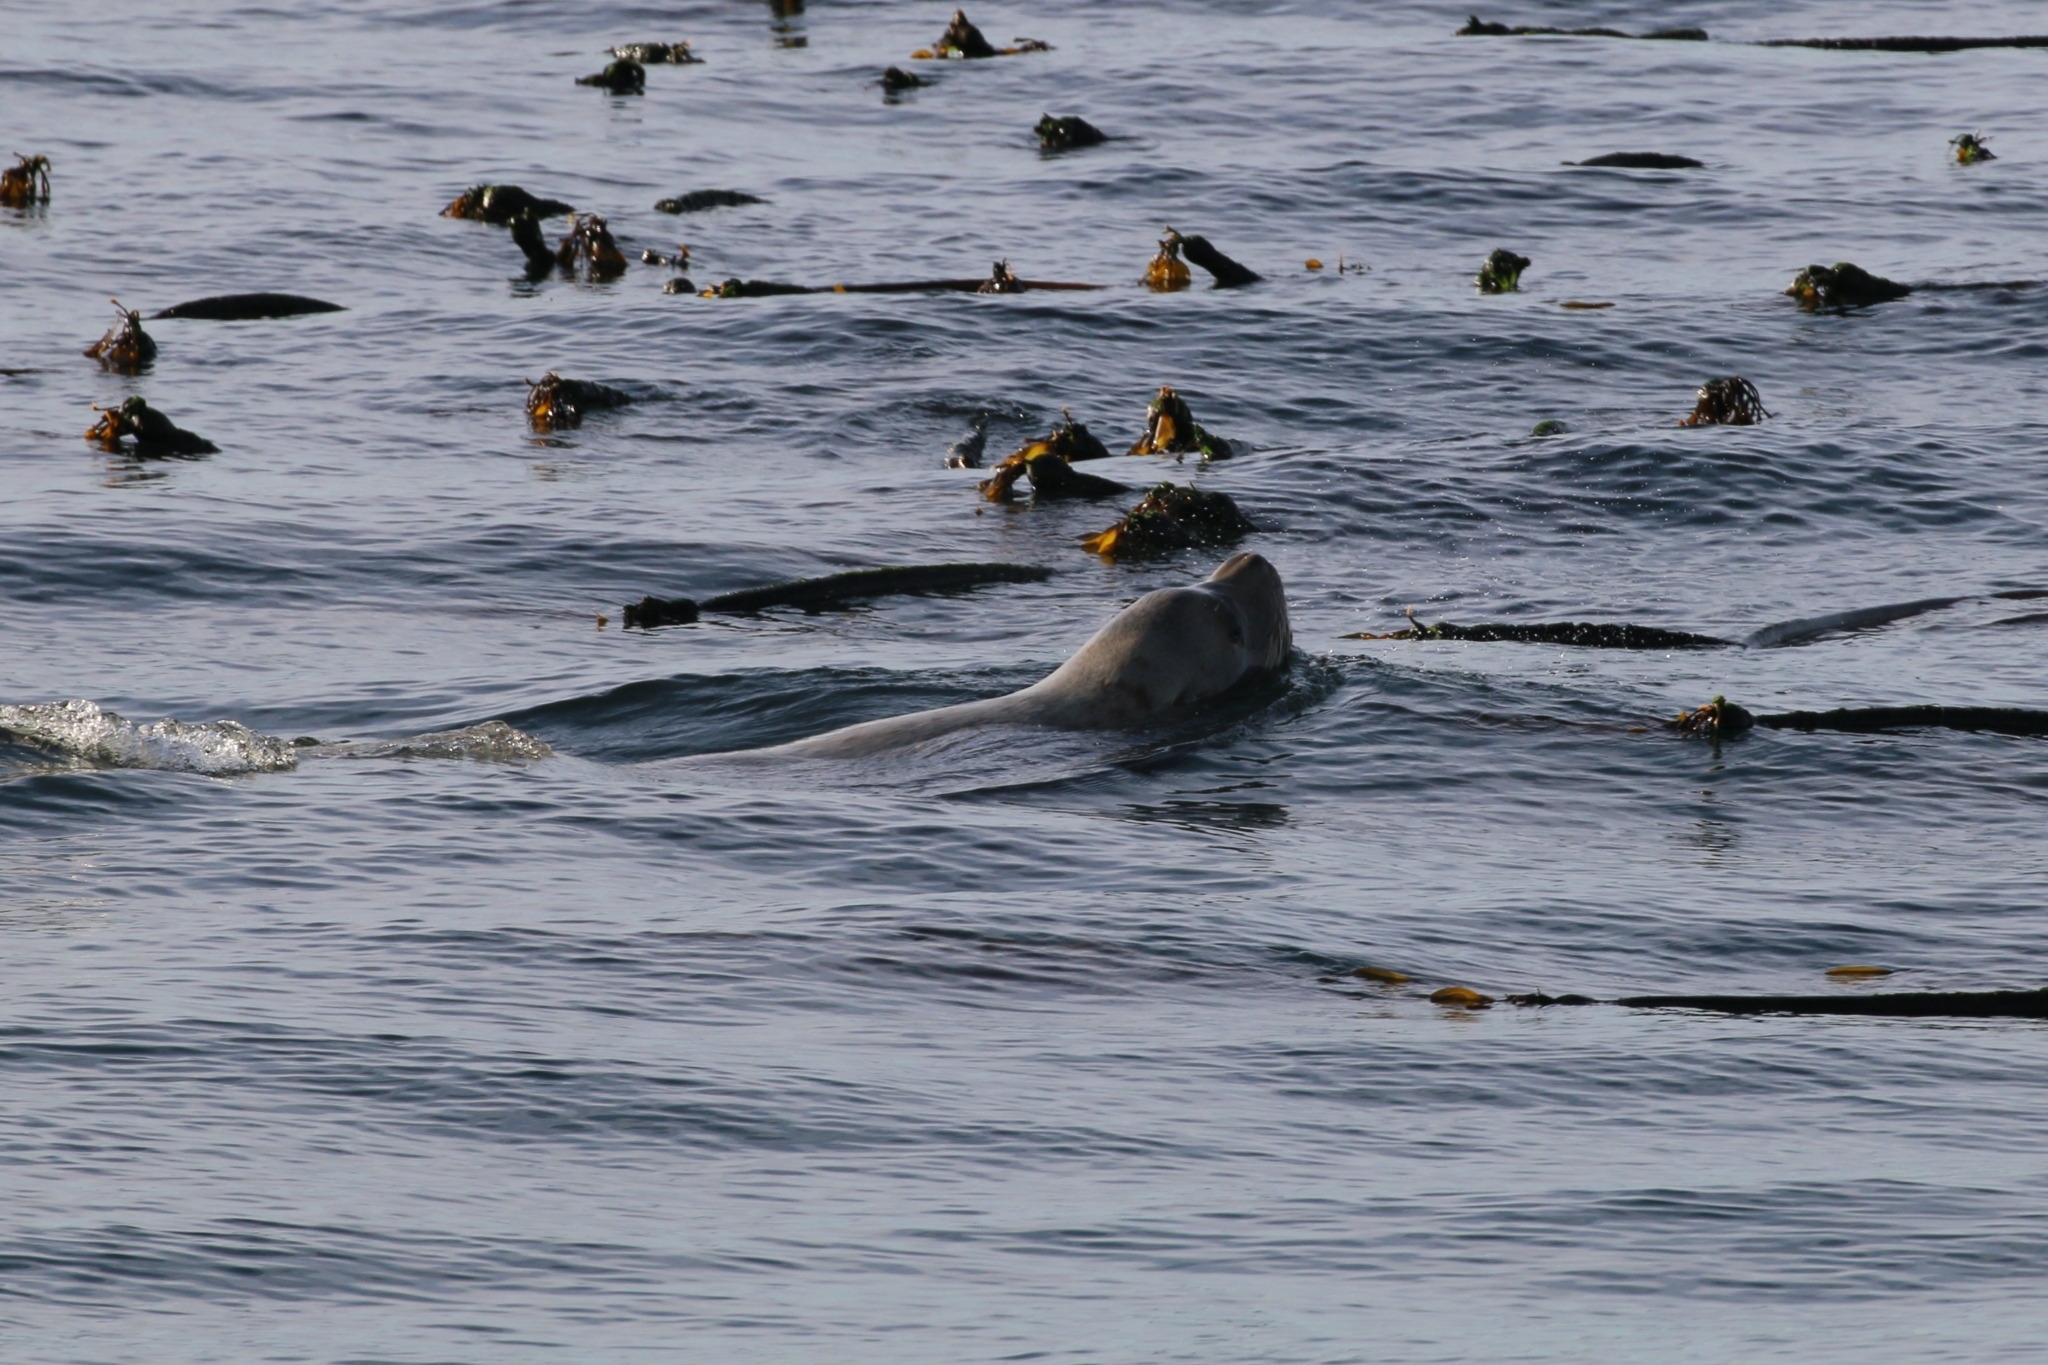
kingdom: Animalia
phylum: Chordata
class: Mammalia
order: Carnivora
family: Otariidae
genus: Eumetopias
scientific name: Eumetopias jubatus
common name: Steller sea lion
